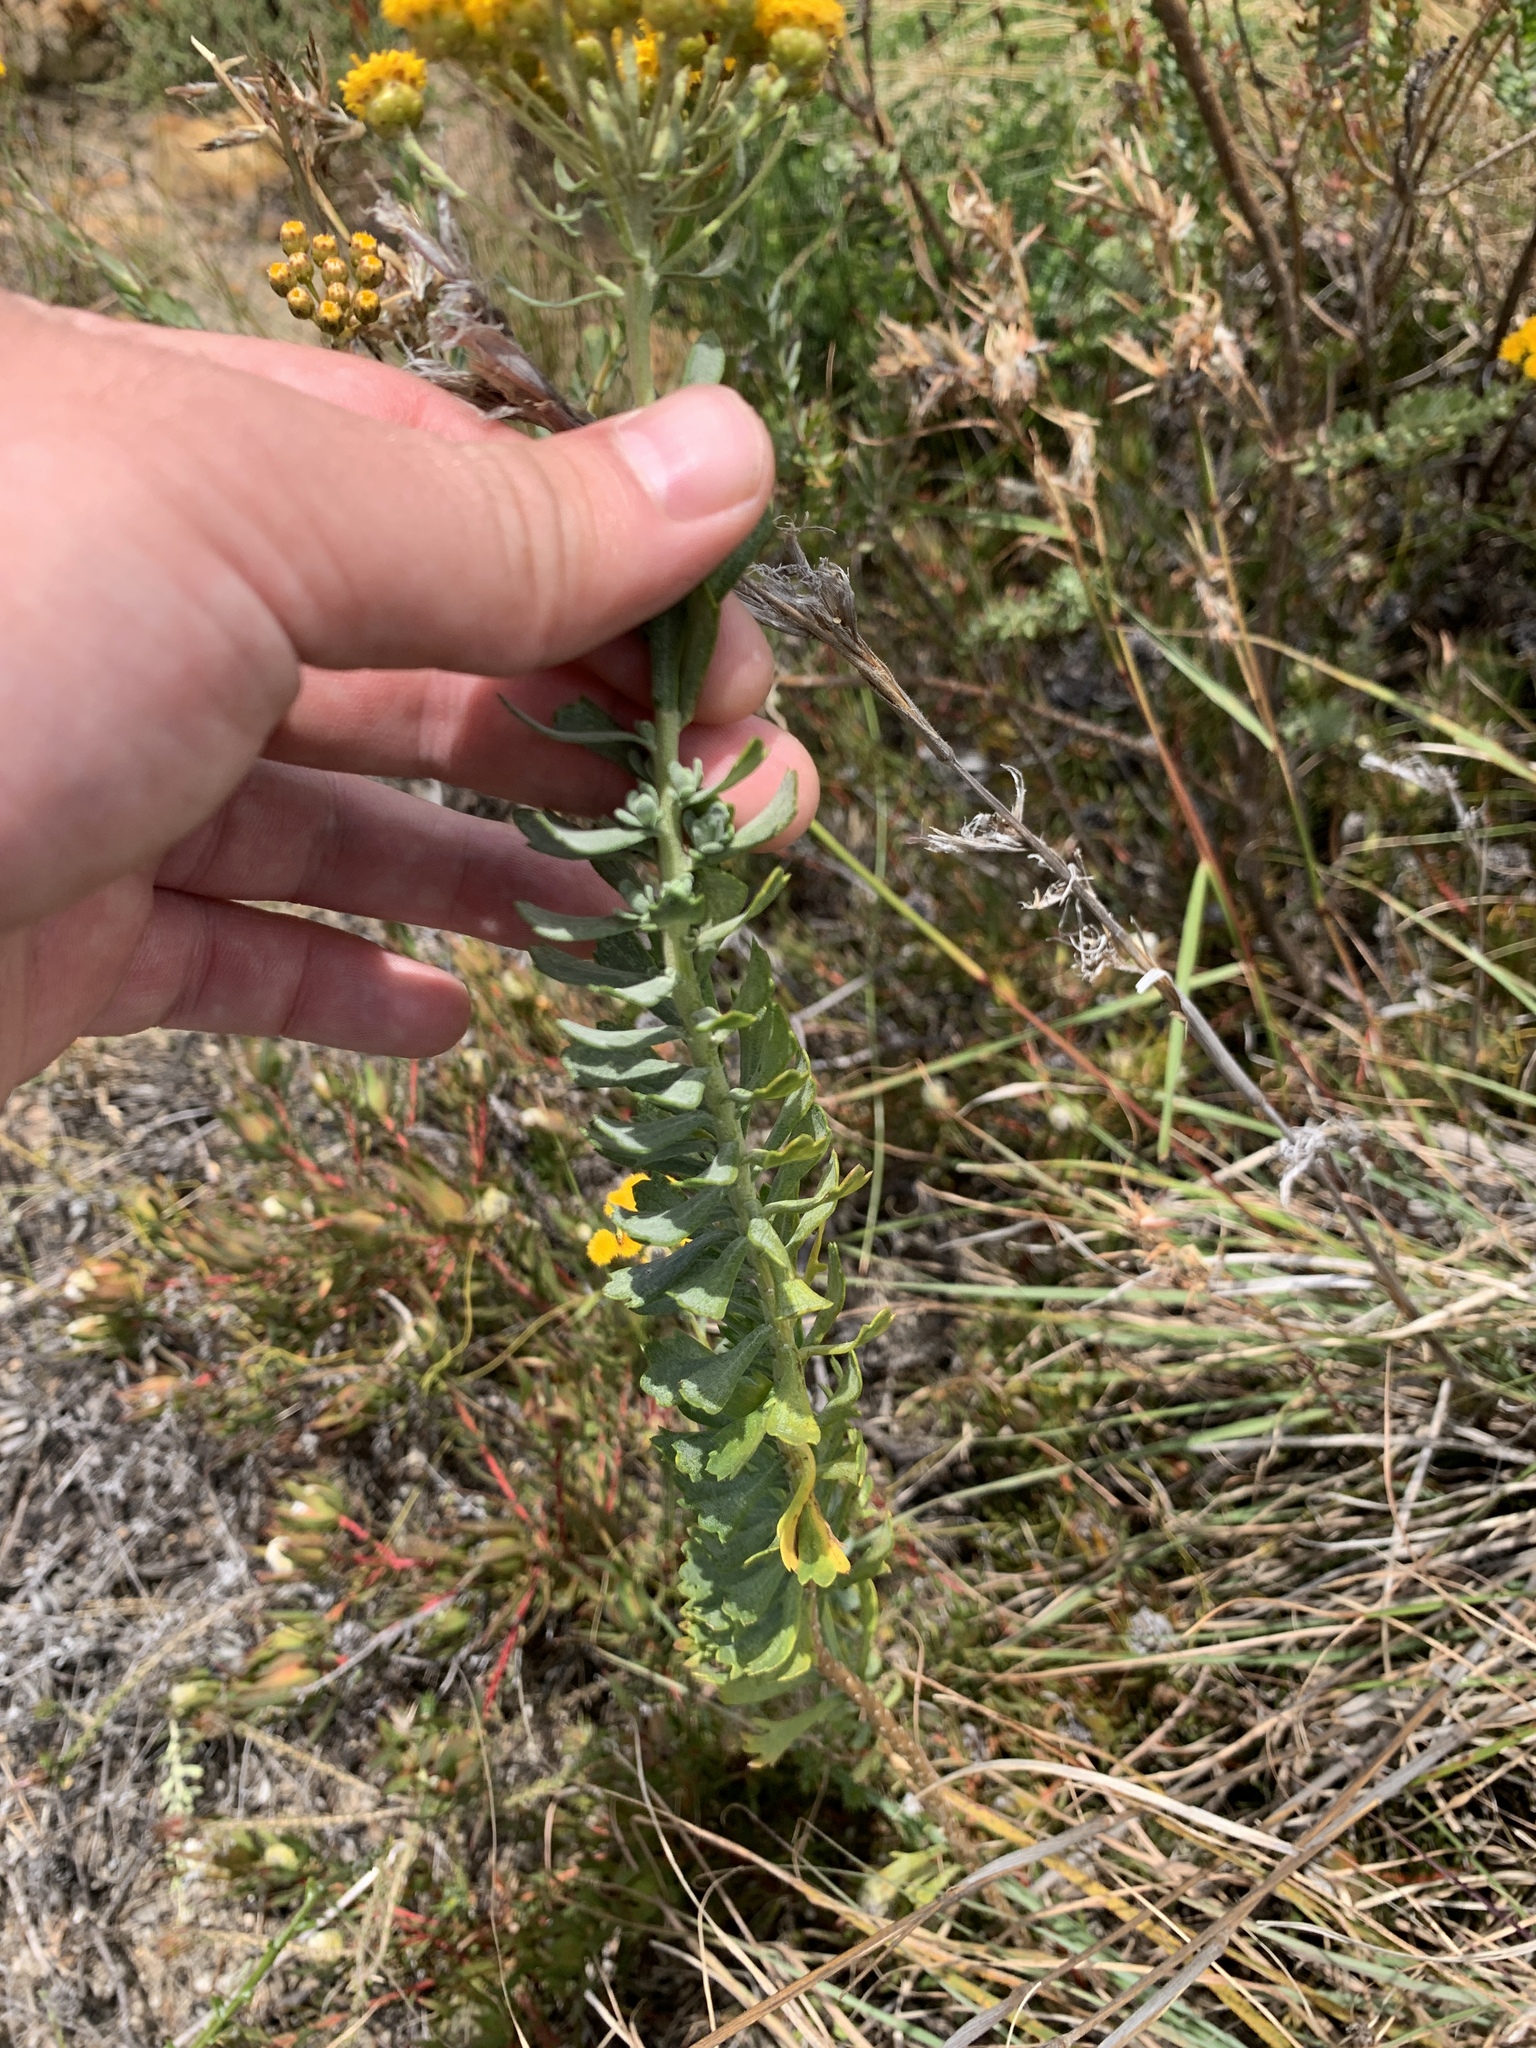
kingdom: Plantae
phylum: Tracheophyta
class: Magnoliopsida
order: Asterales
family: Asteraceae
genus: Athanasia
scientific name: Athanasia trifurcata
